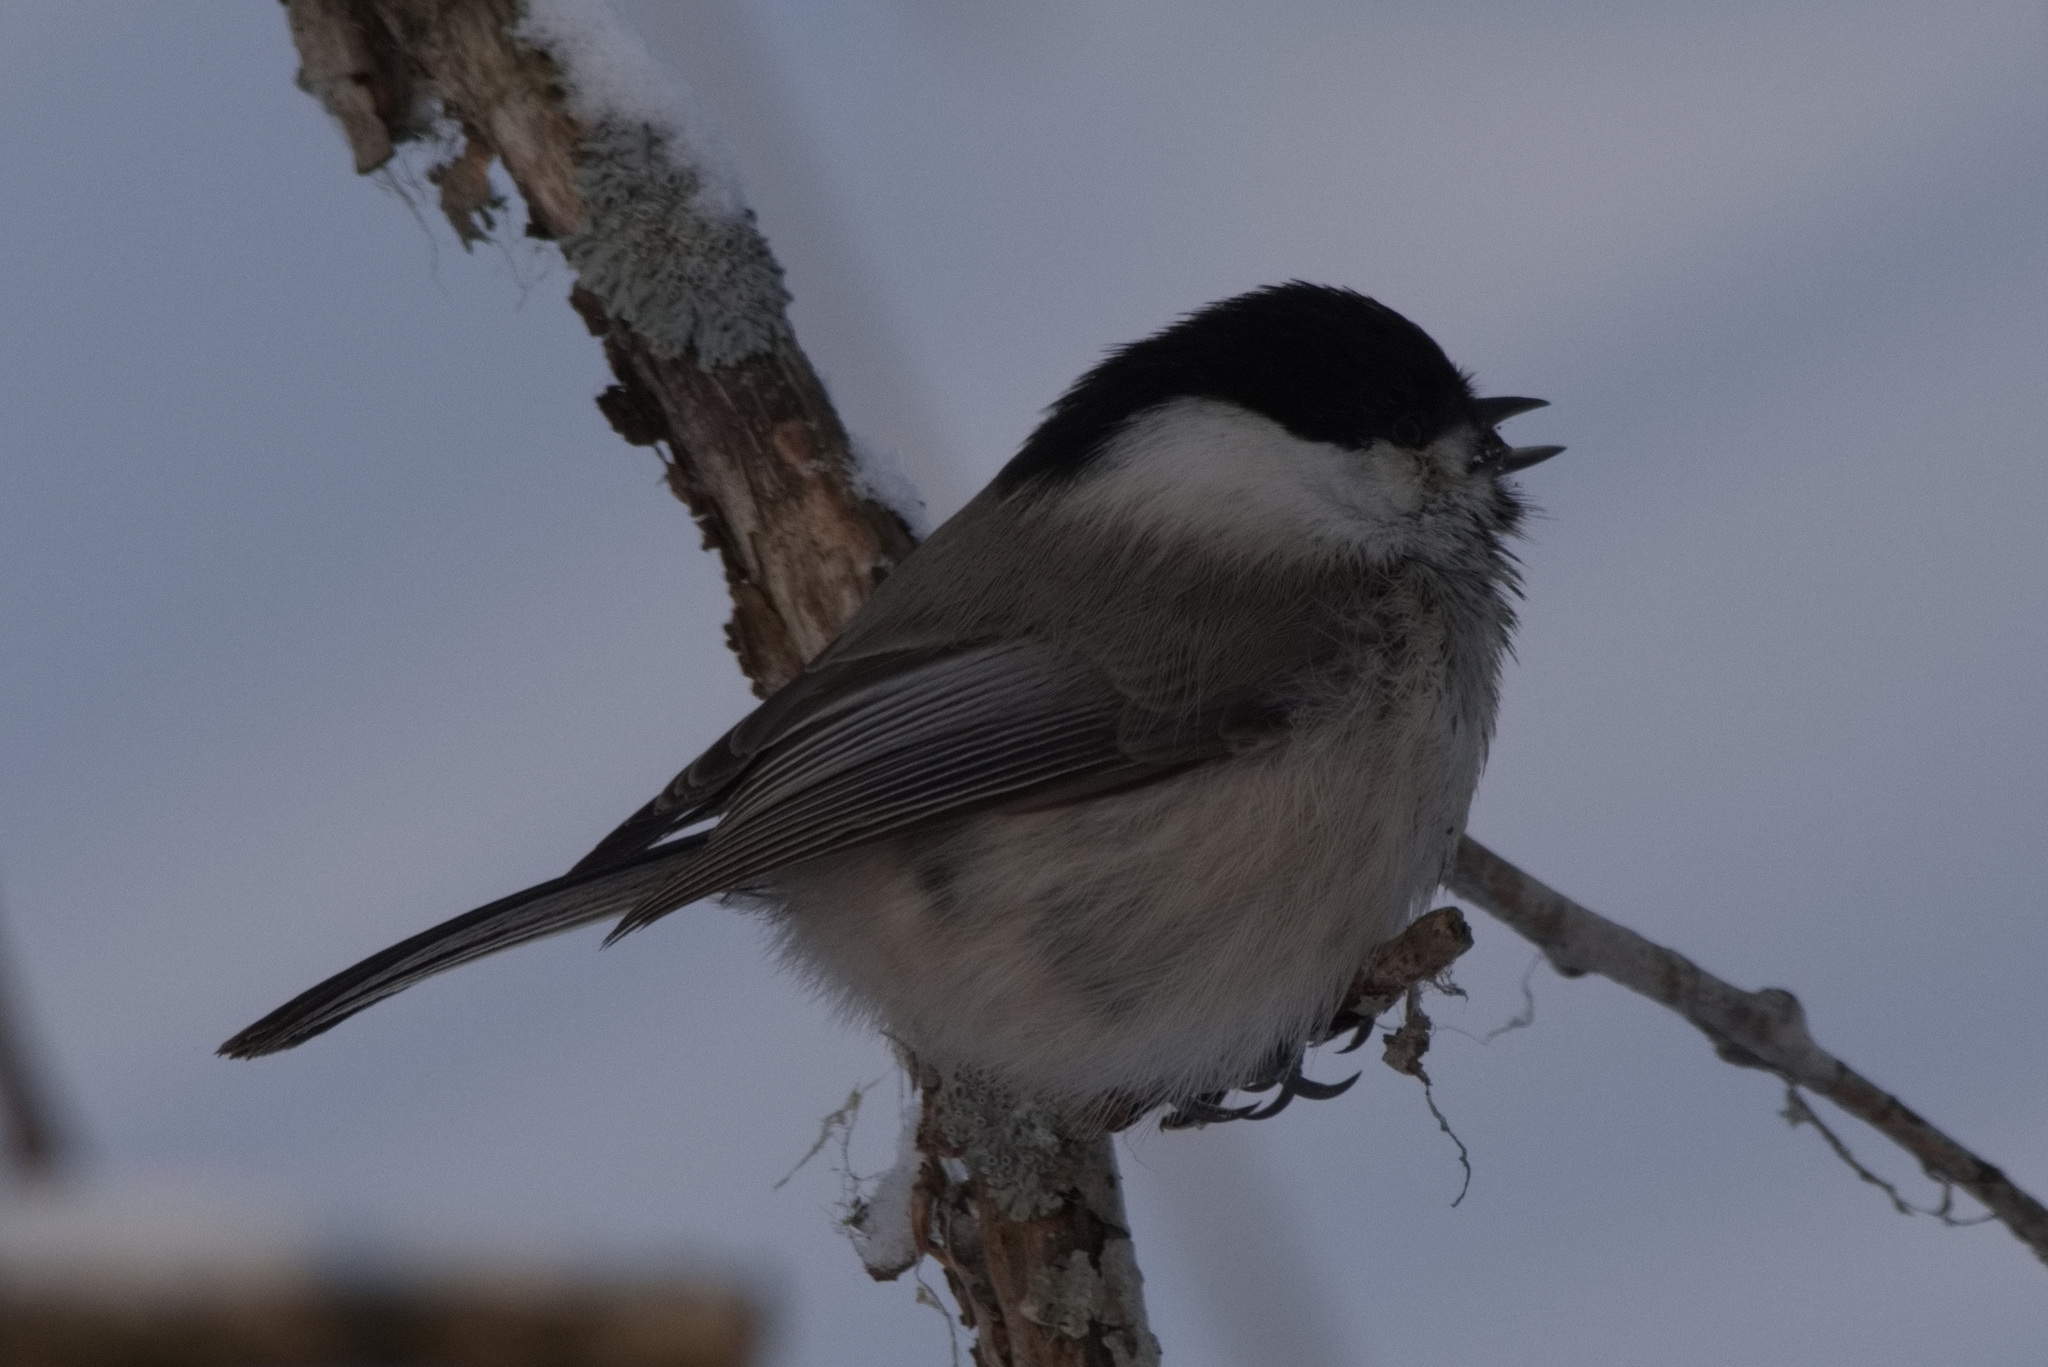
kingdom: Animalia
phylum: Chordata
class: Aves
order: Passeriformes
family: Paridae
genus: Poecile
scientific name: Poecile montanus
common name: Willow tit
